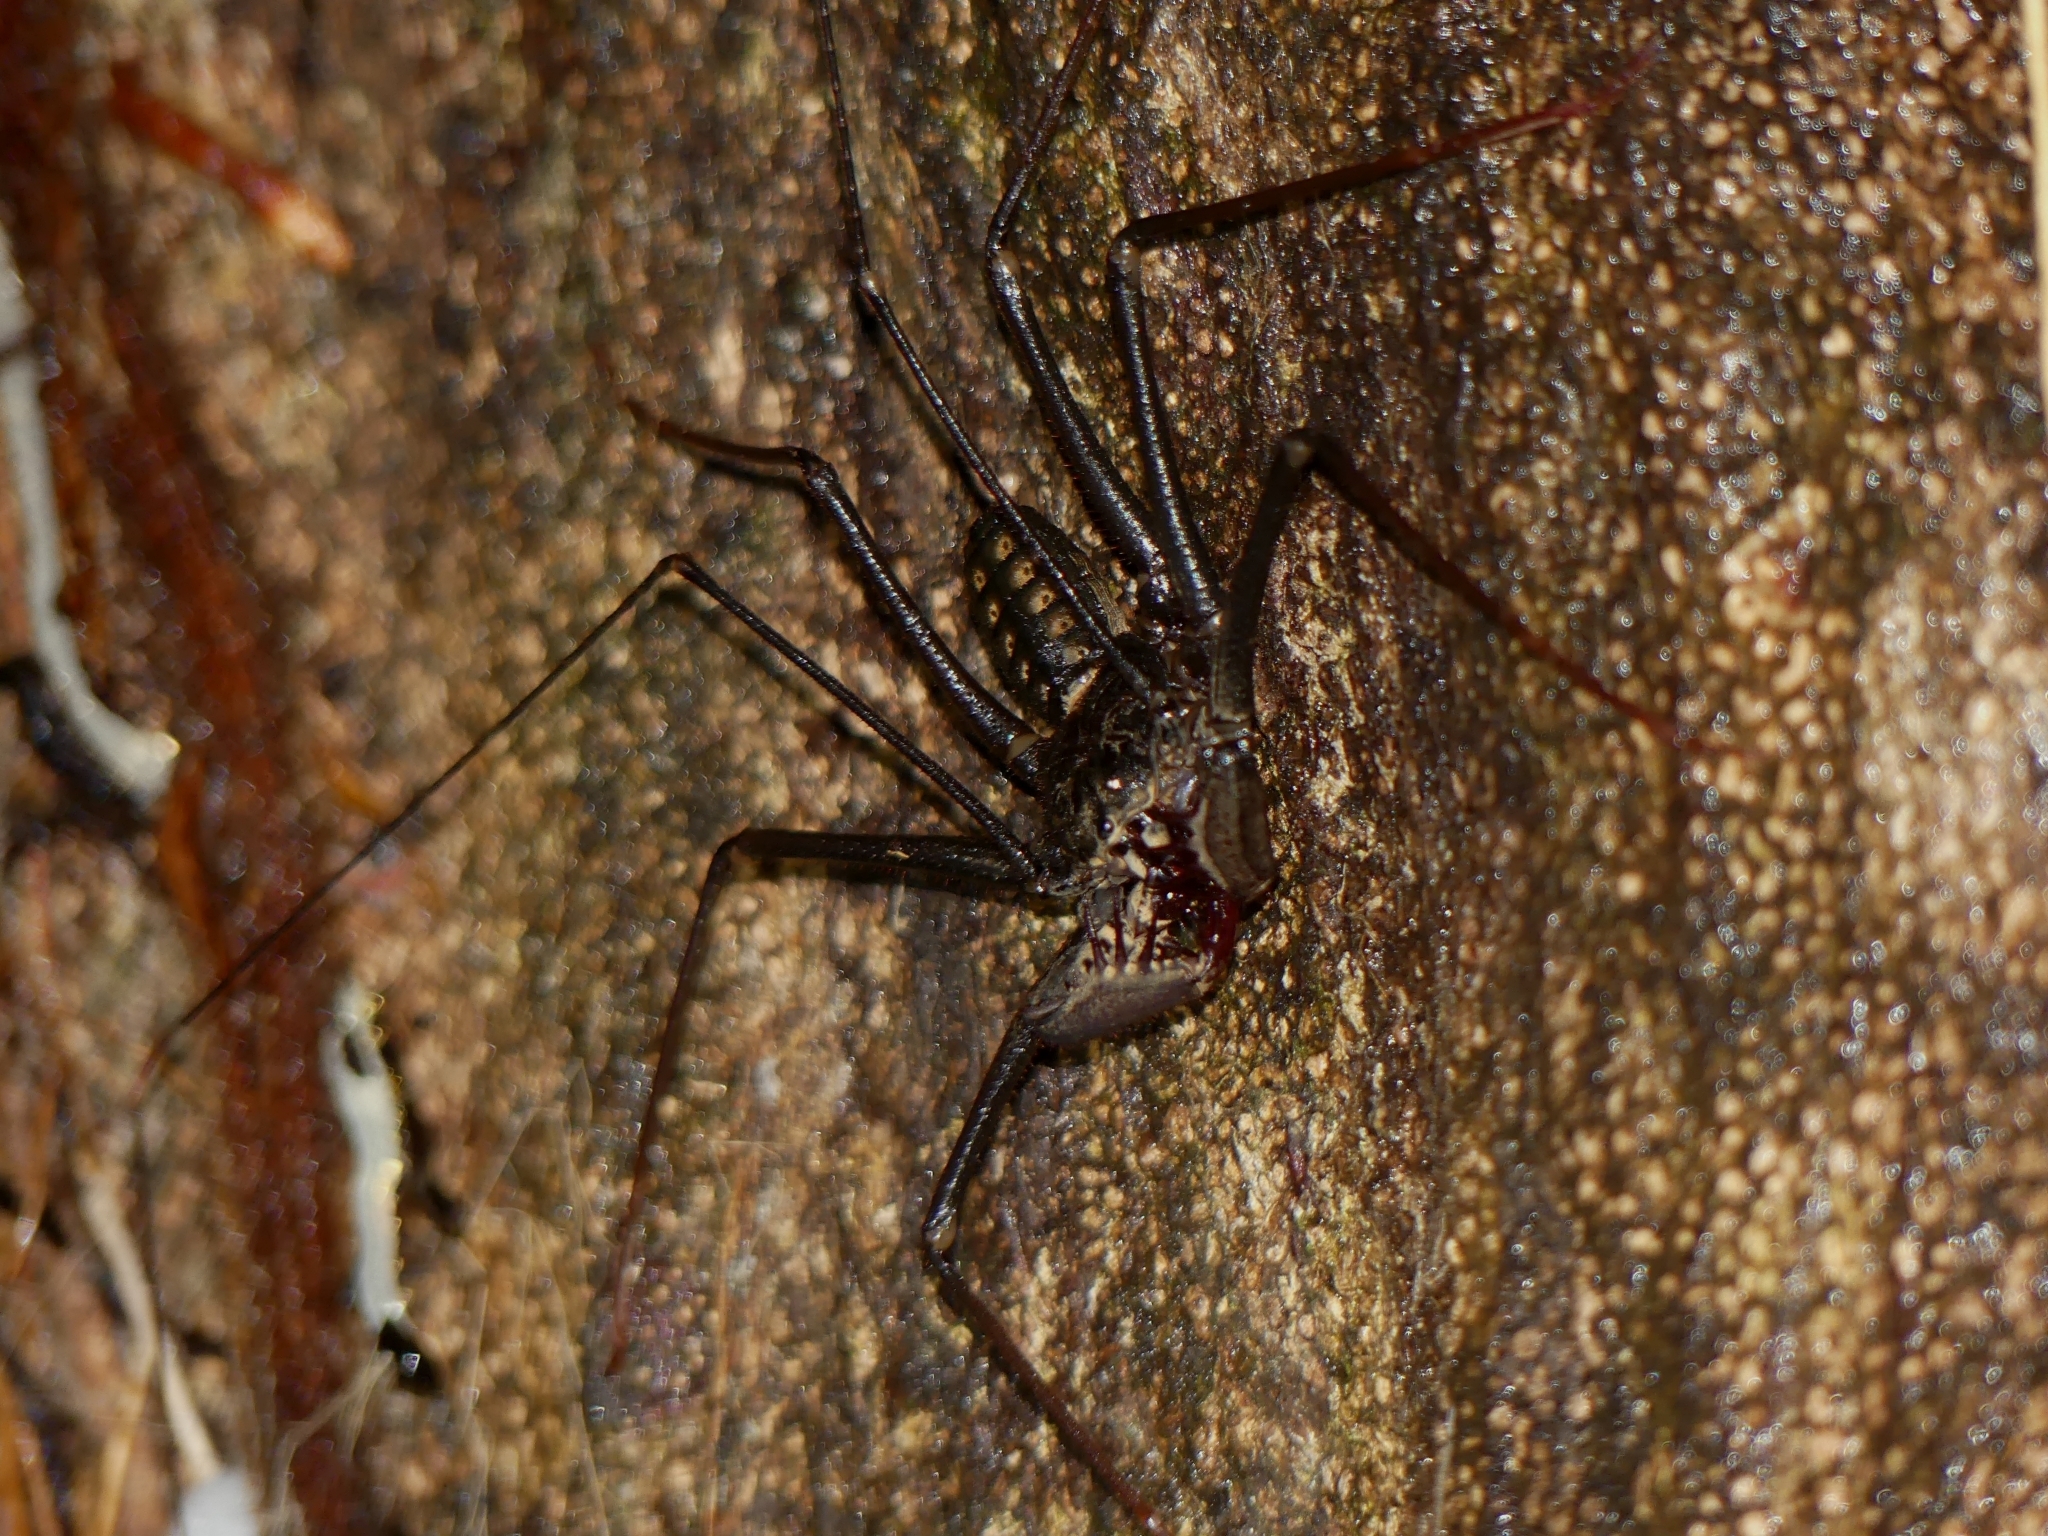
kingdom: Animalia
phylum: Arthropoda
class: Arachnida
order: Amblypygi
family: Phrynidae
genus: Heterophrynus
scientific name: Heterophrynus alces
